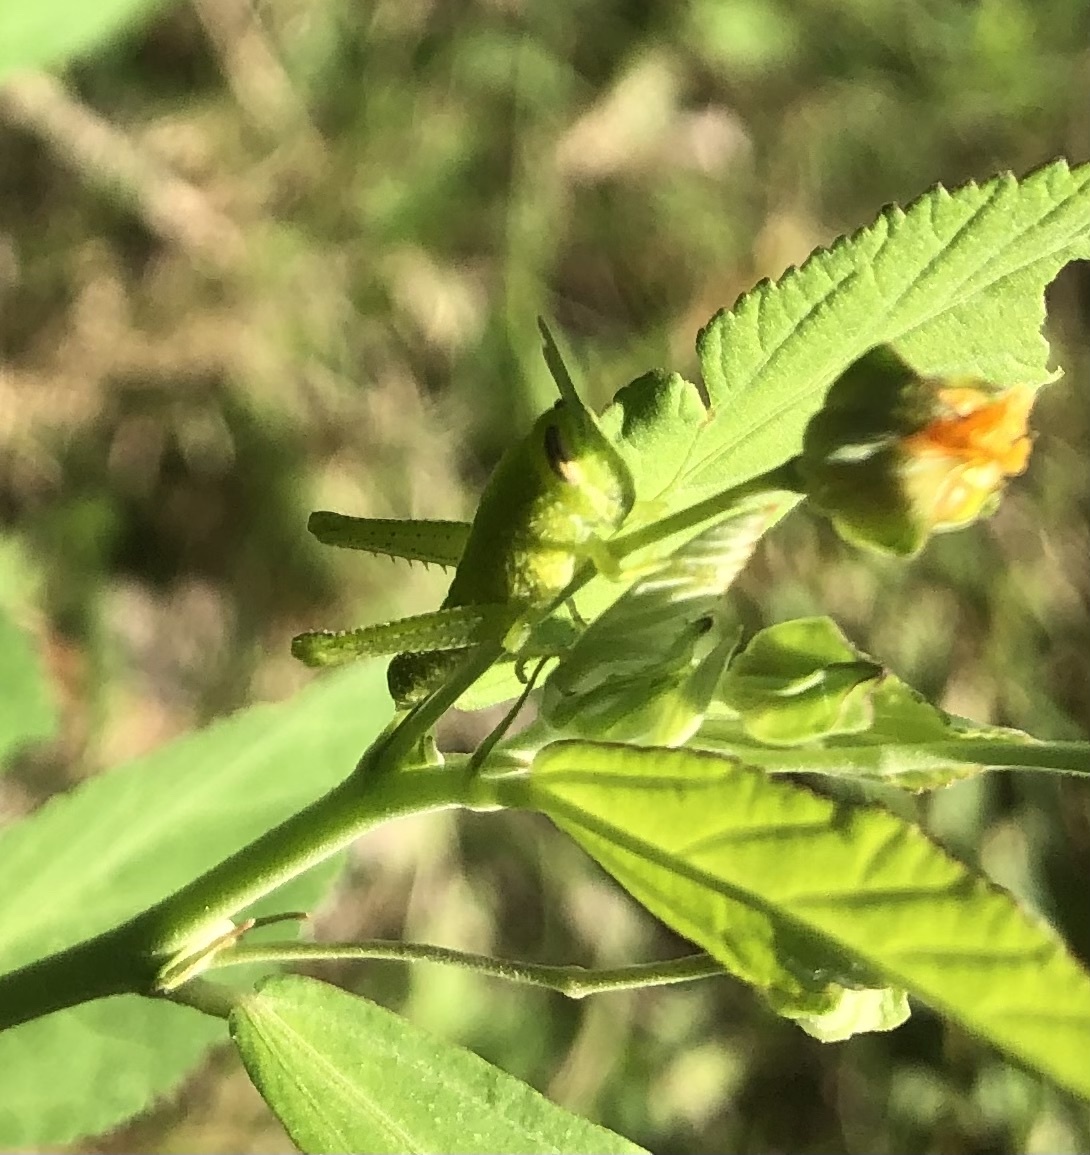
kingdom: Animalia
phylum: Arthropoda
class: Insecta
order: Orthoptera
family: Acrididae
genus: Schistocerca
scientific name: Schistocerca obscura
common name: Obscure bird grasshopper
